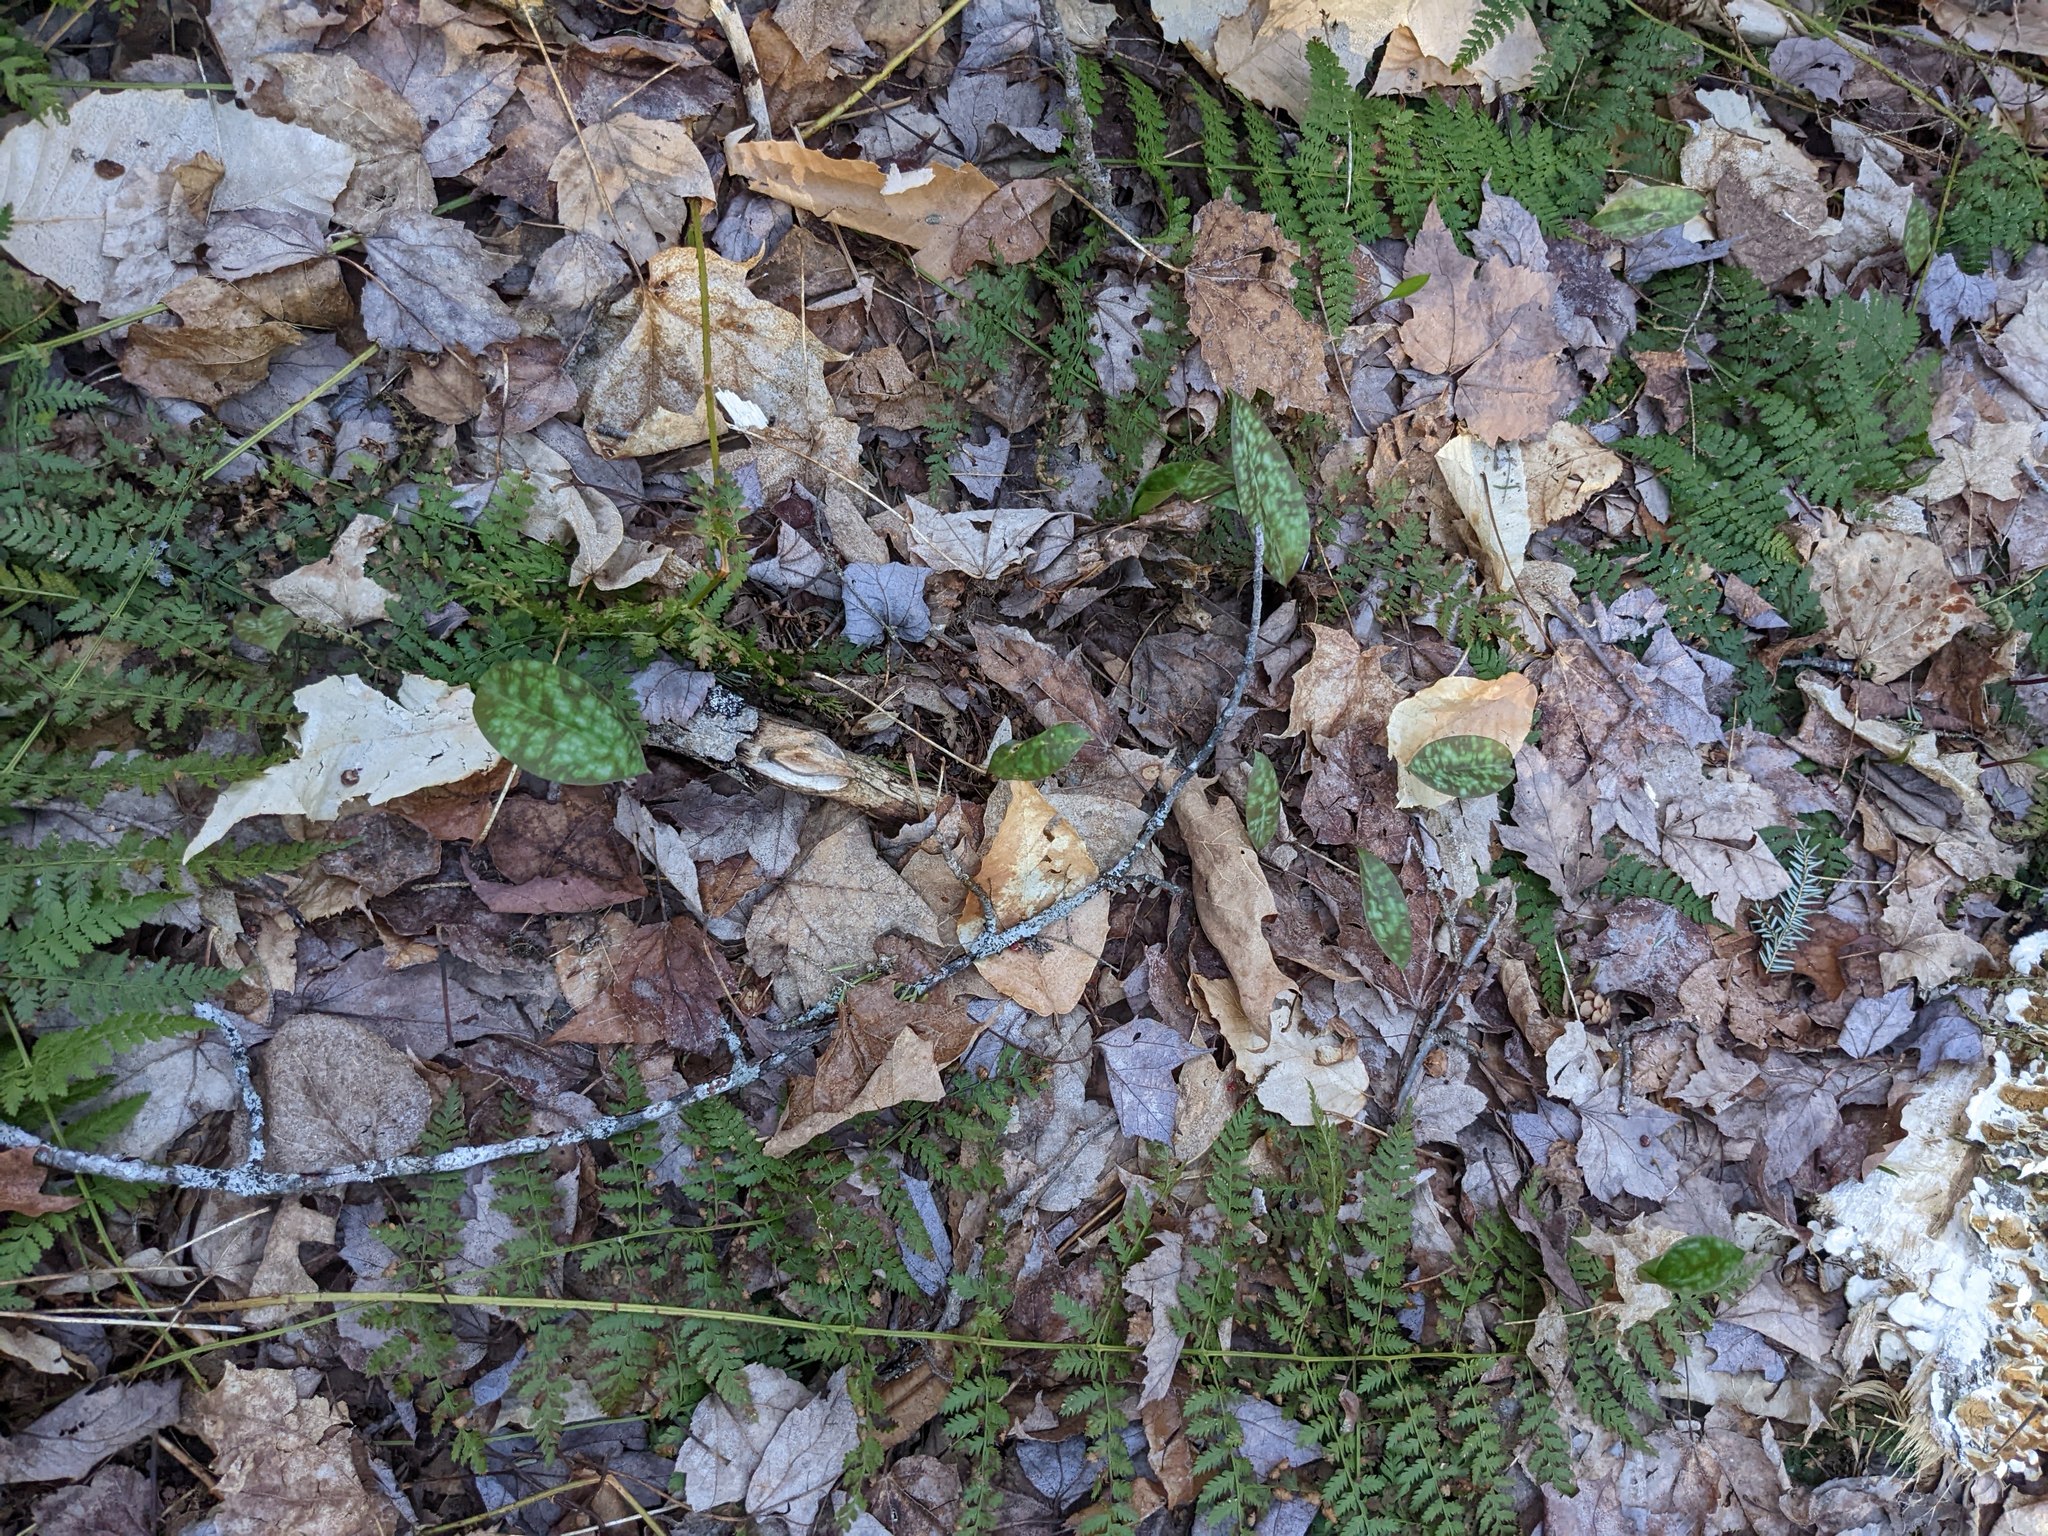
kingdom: Plantae
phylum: Tracheophyta
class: Liliopsida
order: Liliales
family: Liliaceae
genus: Erythronium
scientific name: Erythronium americanum
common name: Yellow adder's-tongue
